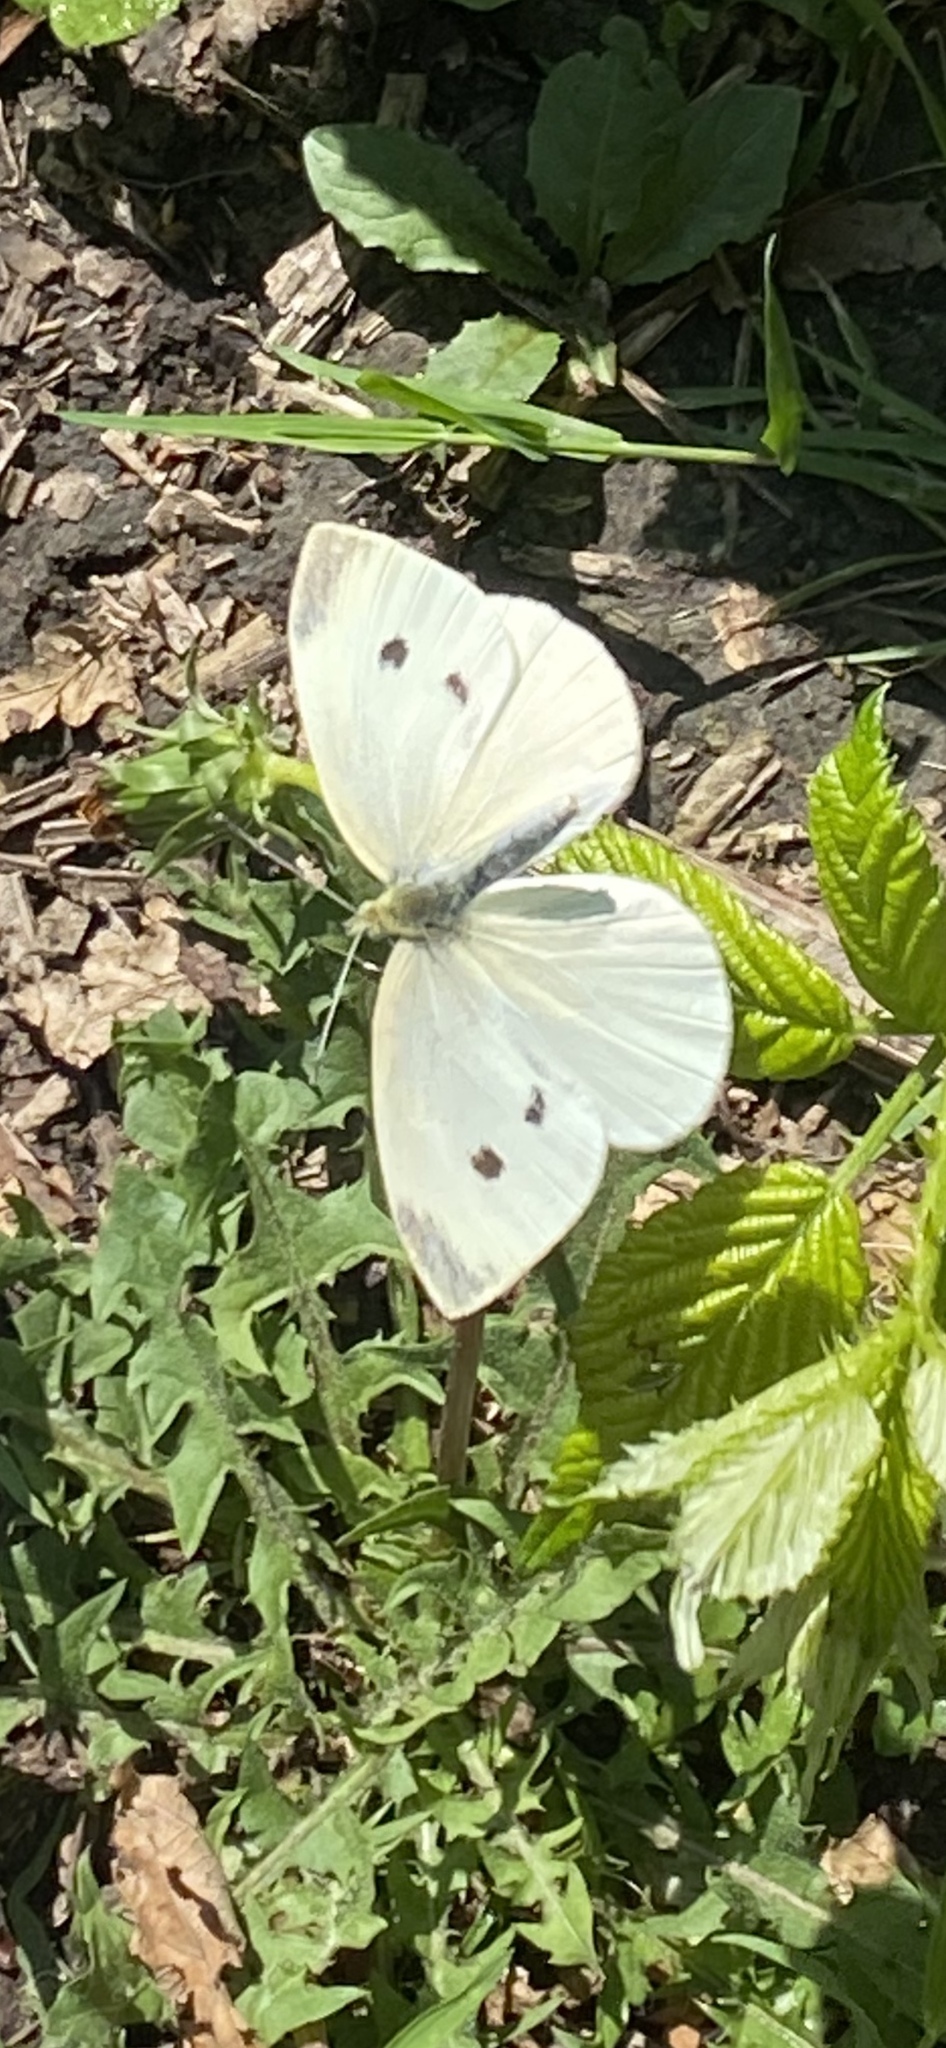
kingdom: Animalia
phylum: Arthropoda
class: Insecta
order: Lepidoptera
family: Pieridae
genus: Pieris
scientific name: Pieris rapae
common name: Small white
